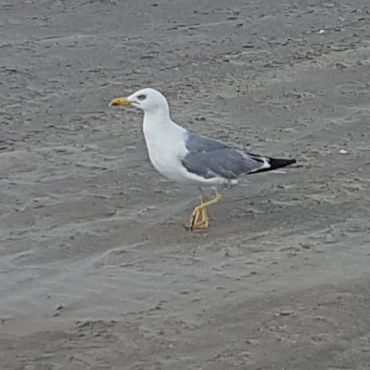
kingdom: Animalia
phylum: Chordata
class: Aves
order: Charadriiformes
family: Laridae
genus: Larus
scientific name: Larus michahellis
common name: Yellow-legged gull
